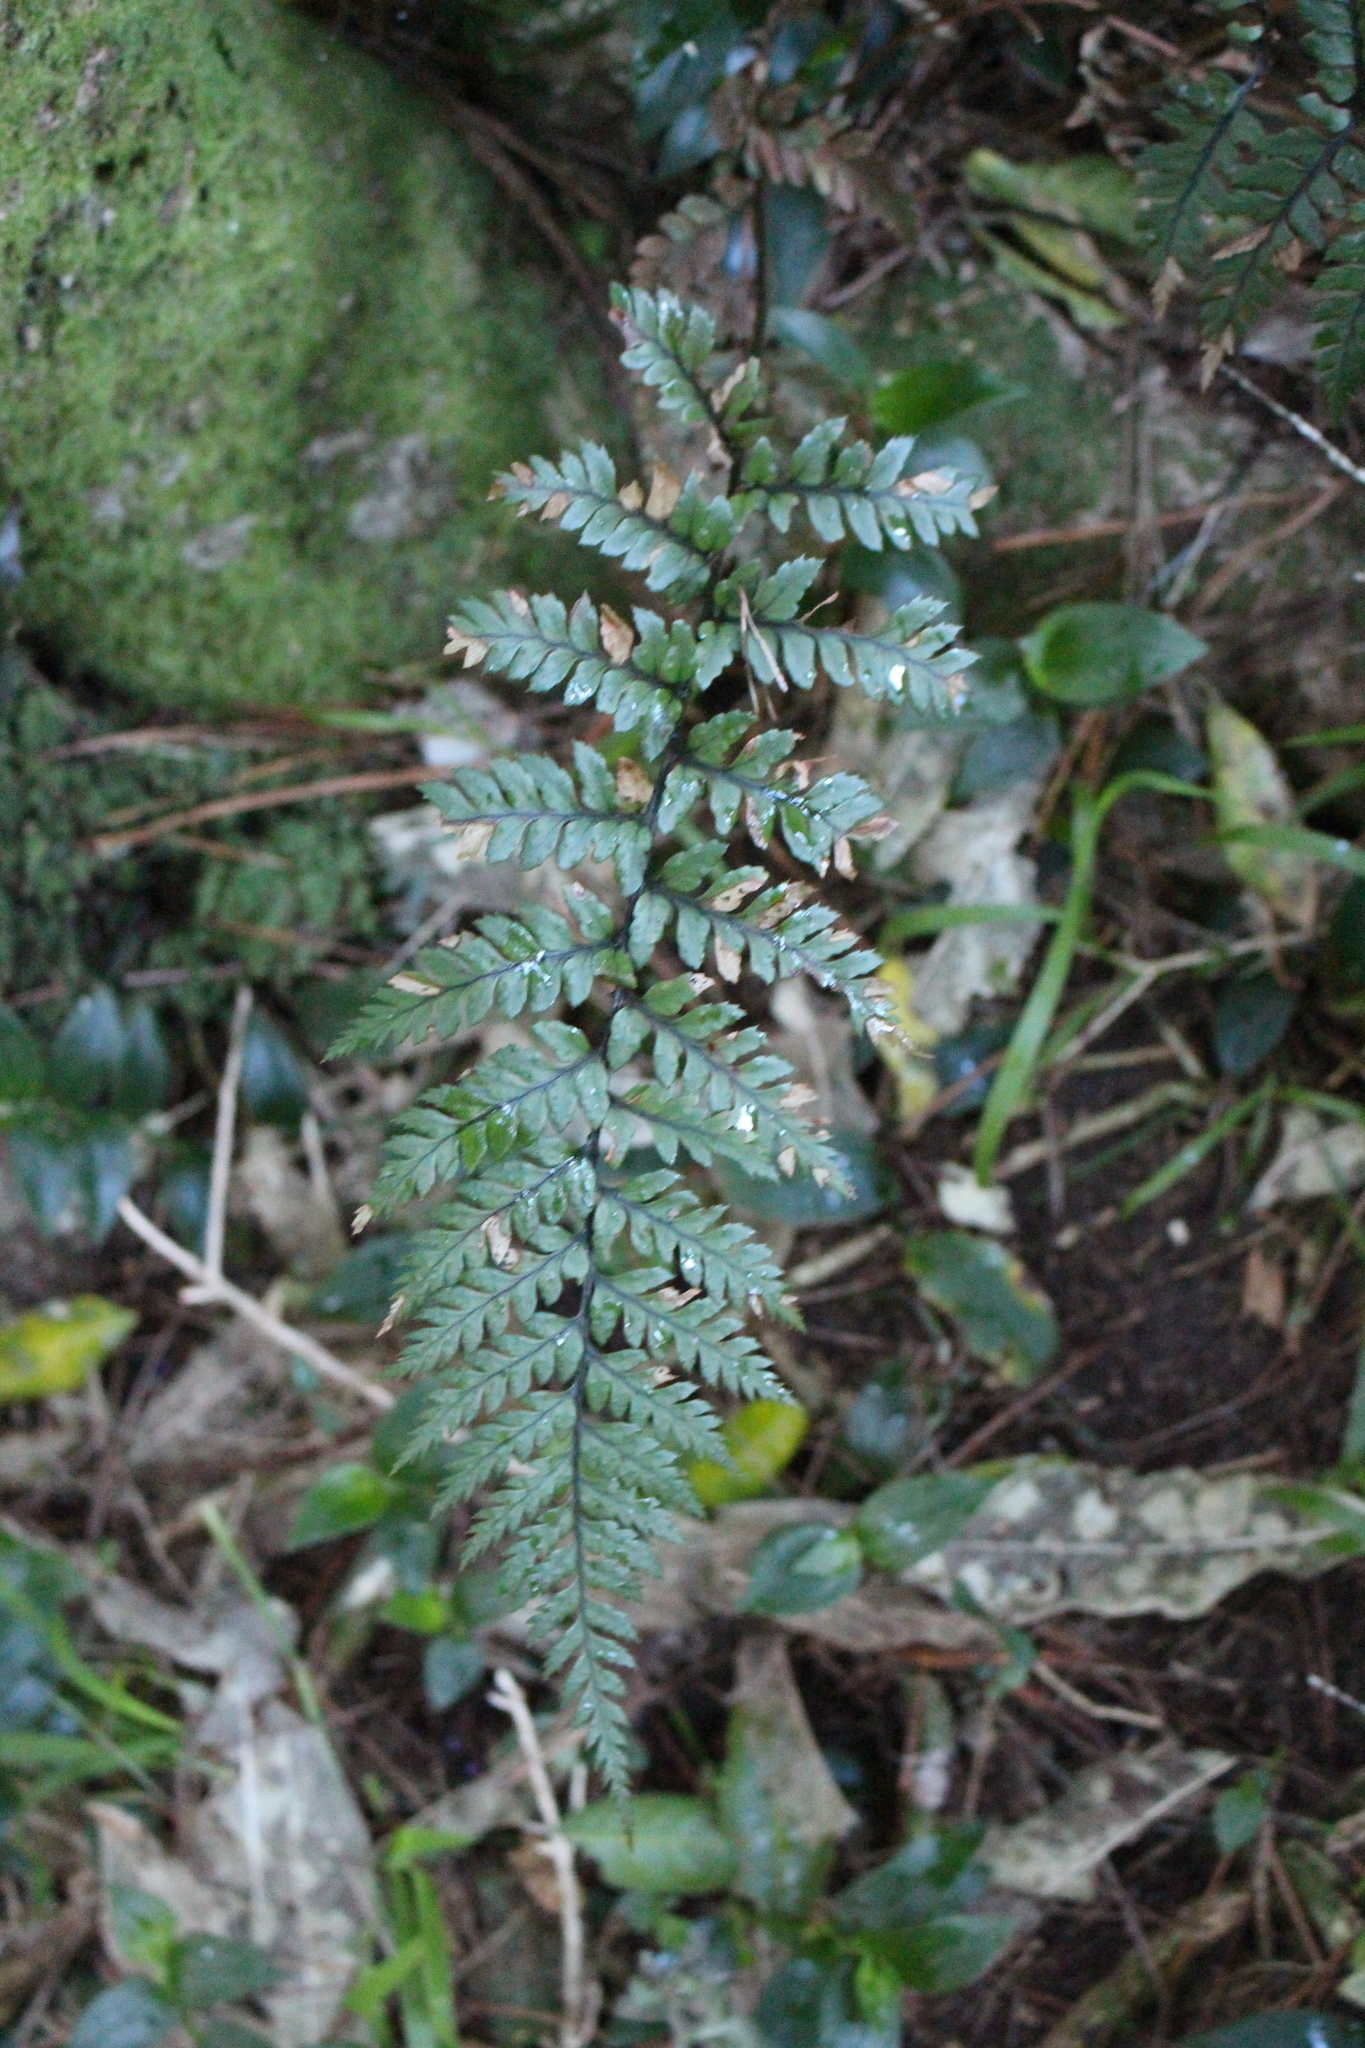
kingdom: Plantae
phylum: Tracheophyta
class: Polypodiopsida
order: Polypodiales
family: Dryopteridaceae
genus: Polystichum
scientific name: Polystichum neozelandicum
